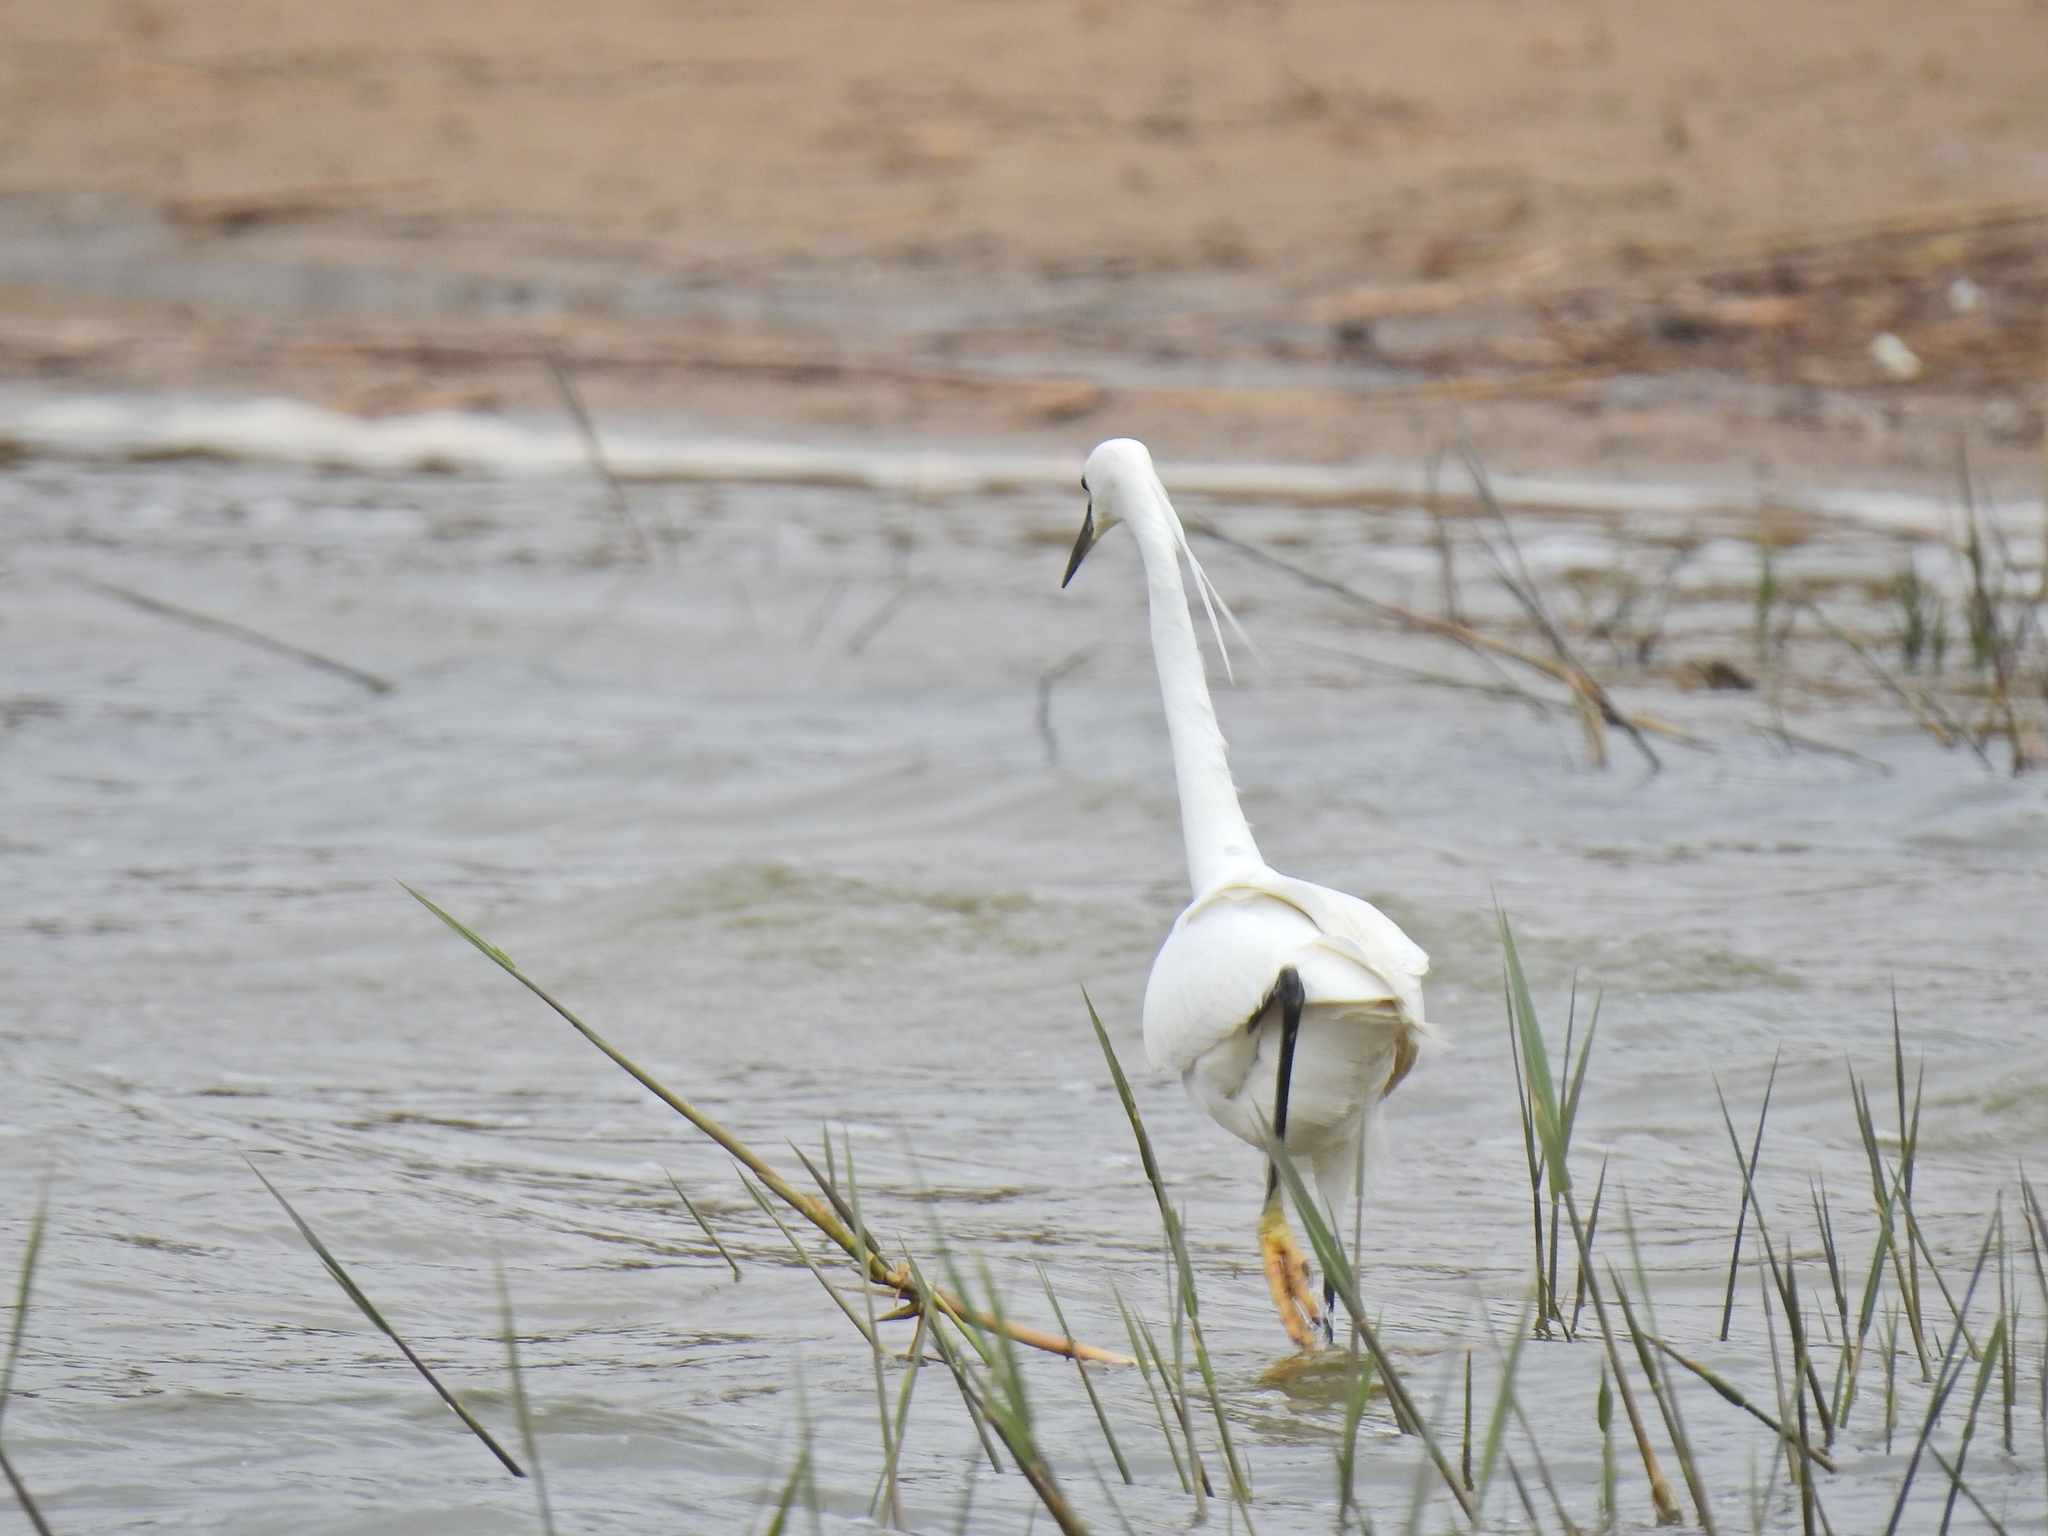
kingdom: Animalia
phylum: Chordata
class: Aves
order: Pelecaniformes
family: Ardeidae
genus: Egretta
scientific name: Egretta garzetta
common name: Little egret
